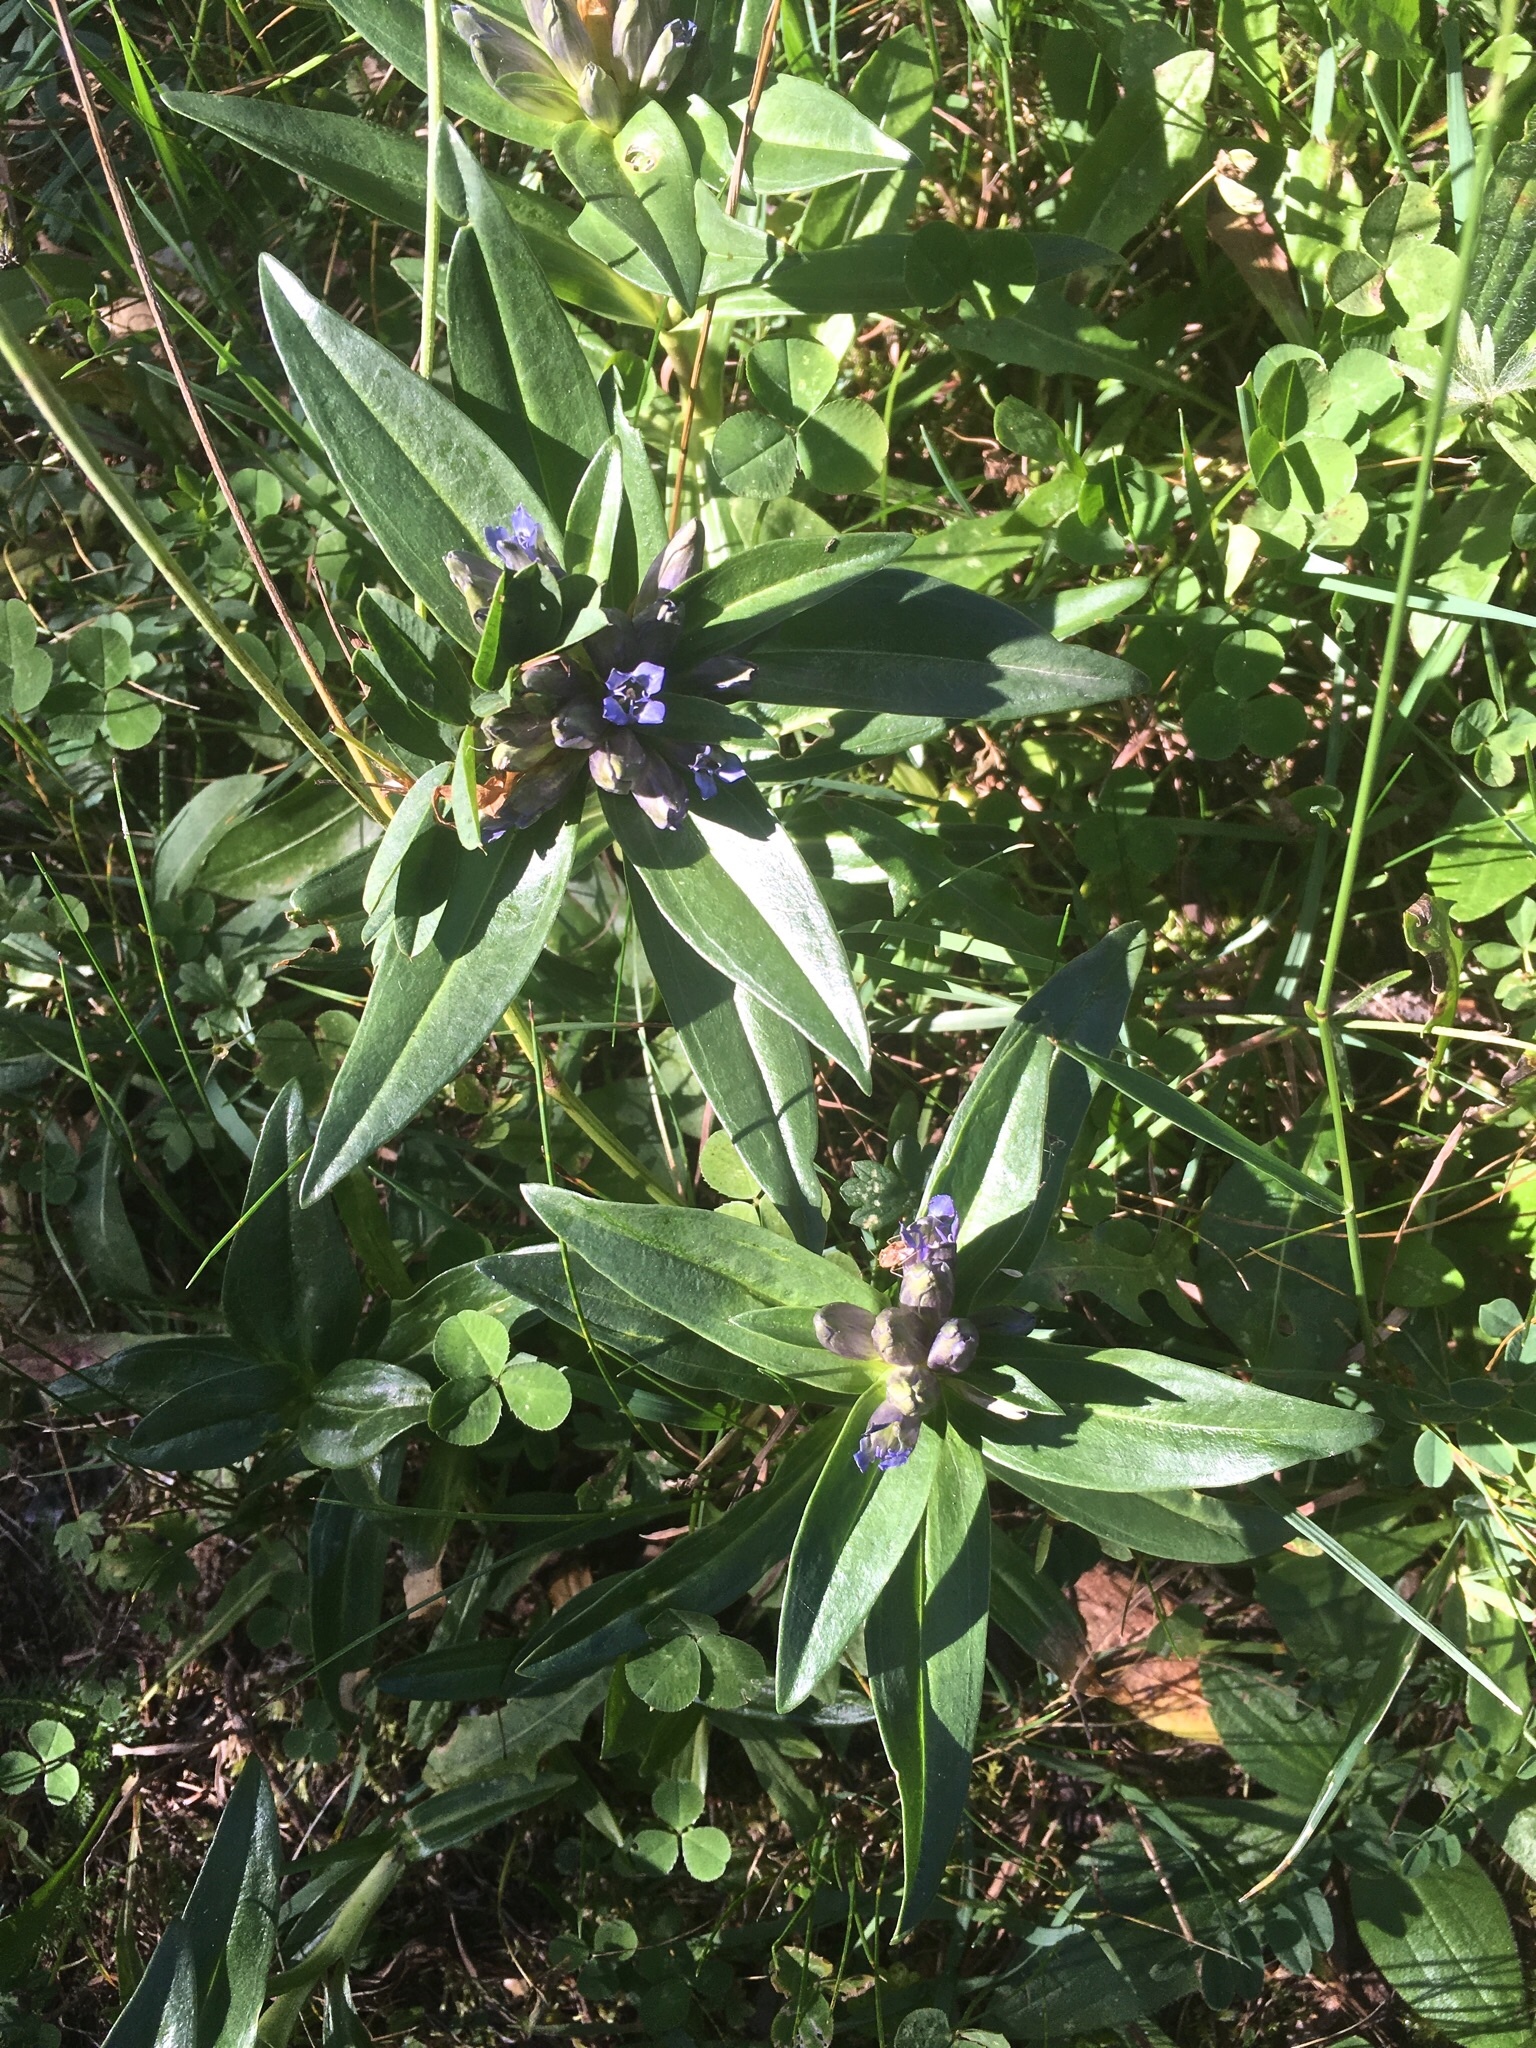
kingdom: Plantae
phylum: Tracheophyta
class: Magnoliopsida
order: Gentianales
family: Gentianaceae
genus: Gentiana
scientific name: Gentiana cruciata
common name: Cross gentian
